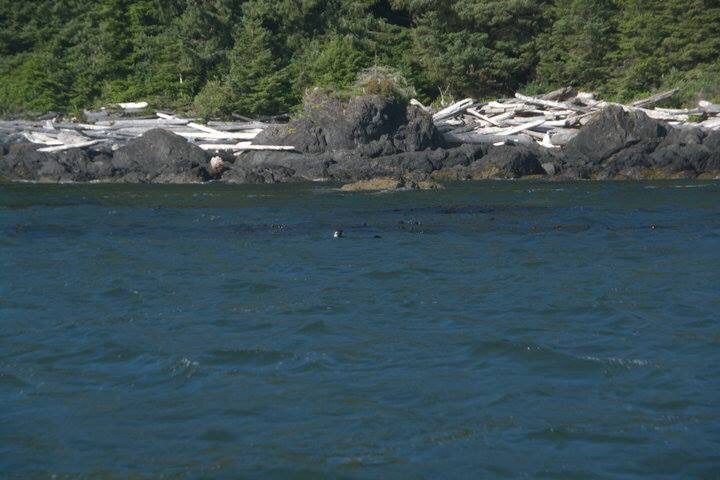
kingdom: Animalia
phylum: Chordata
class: Mammalia
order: Carnivora
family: Mustelidae
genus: Enhydra
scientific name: Enhydra lutris
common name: Sea otter
